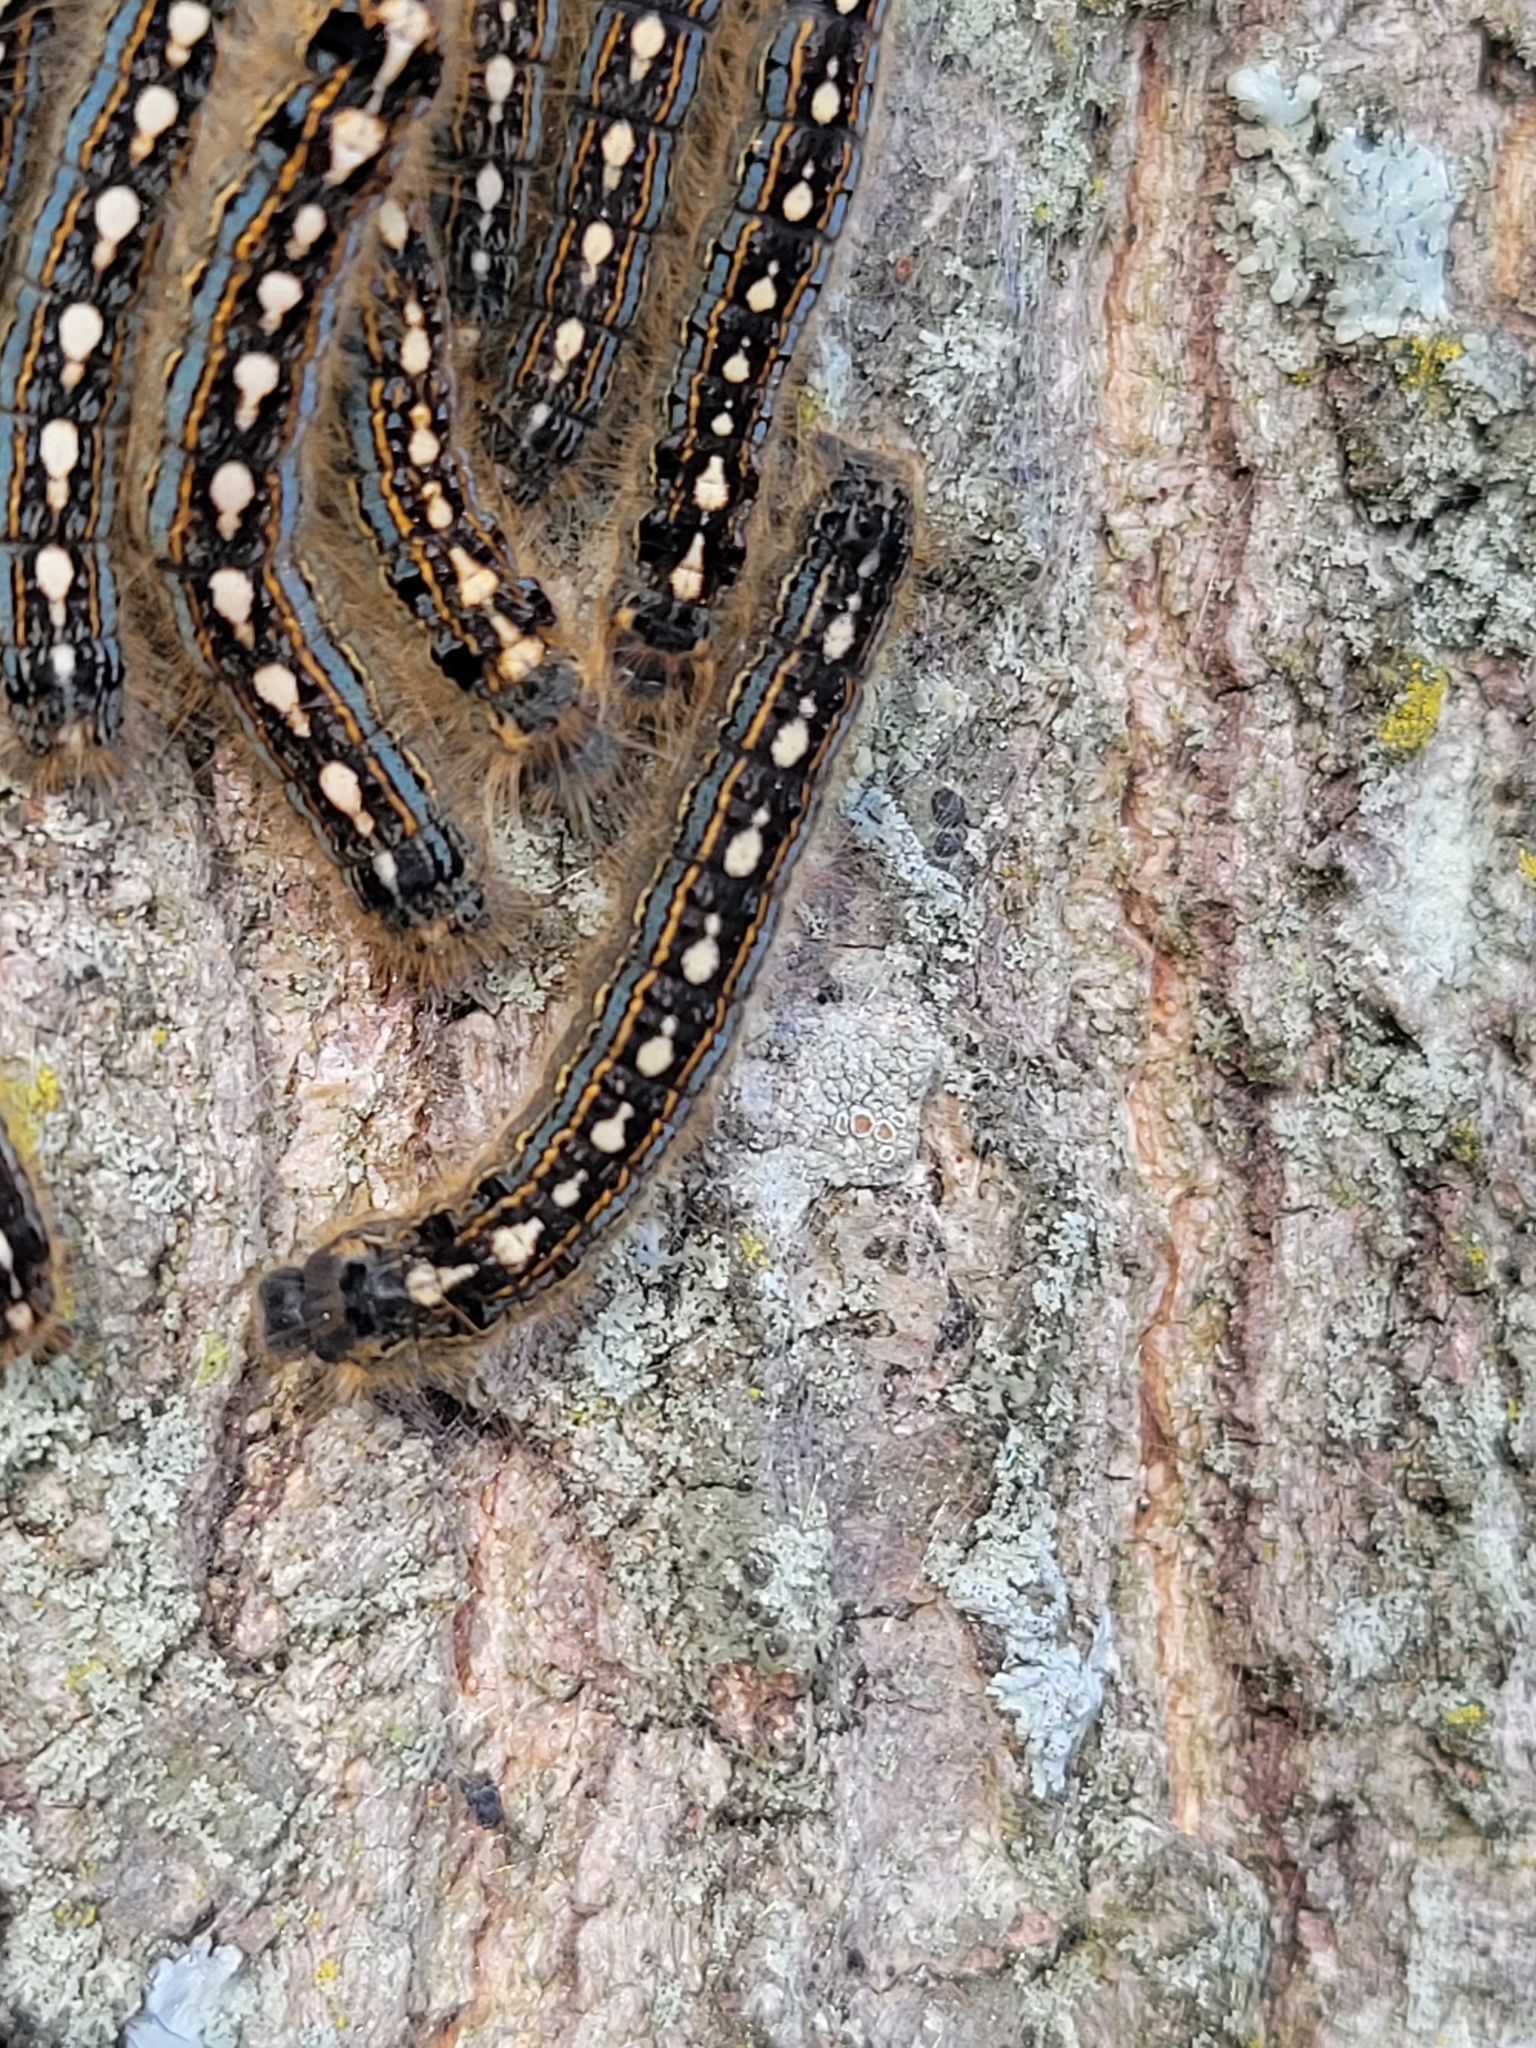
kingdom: Animalia
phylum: Arthropoda
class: Insecta
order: Lepidoptera
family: Lasiocampidae
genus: Malacosoma
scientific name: Malacosoma disstria
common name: Forest tent caterpillar
